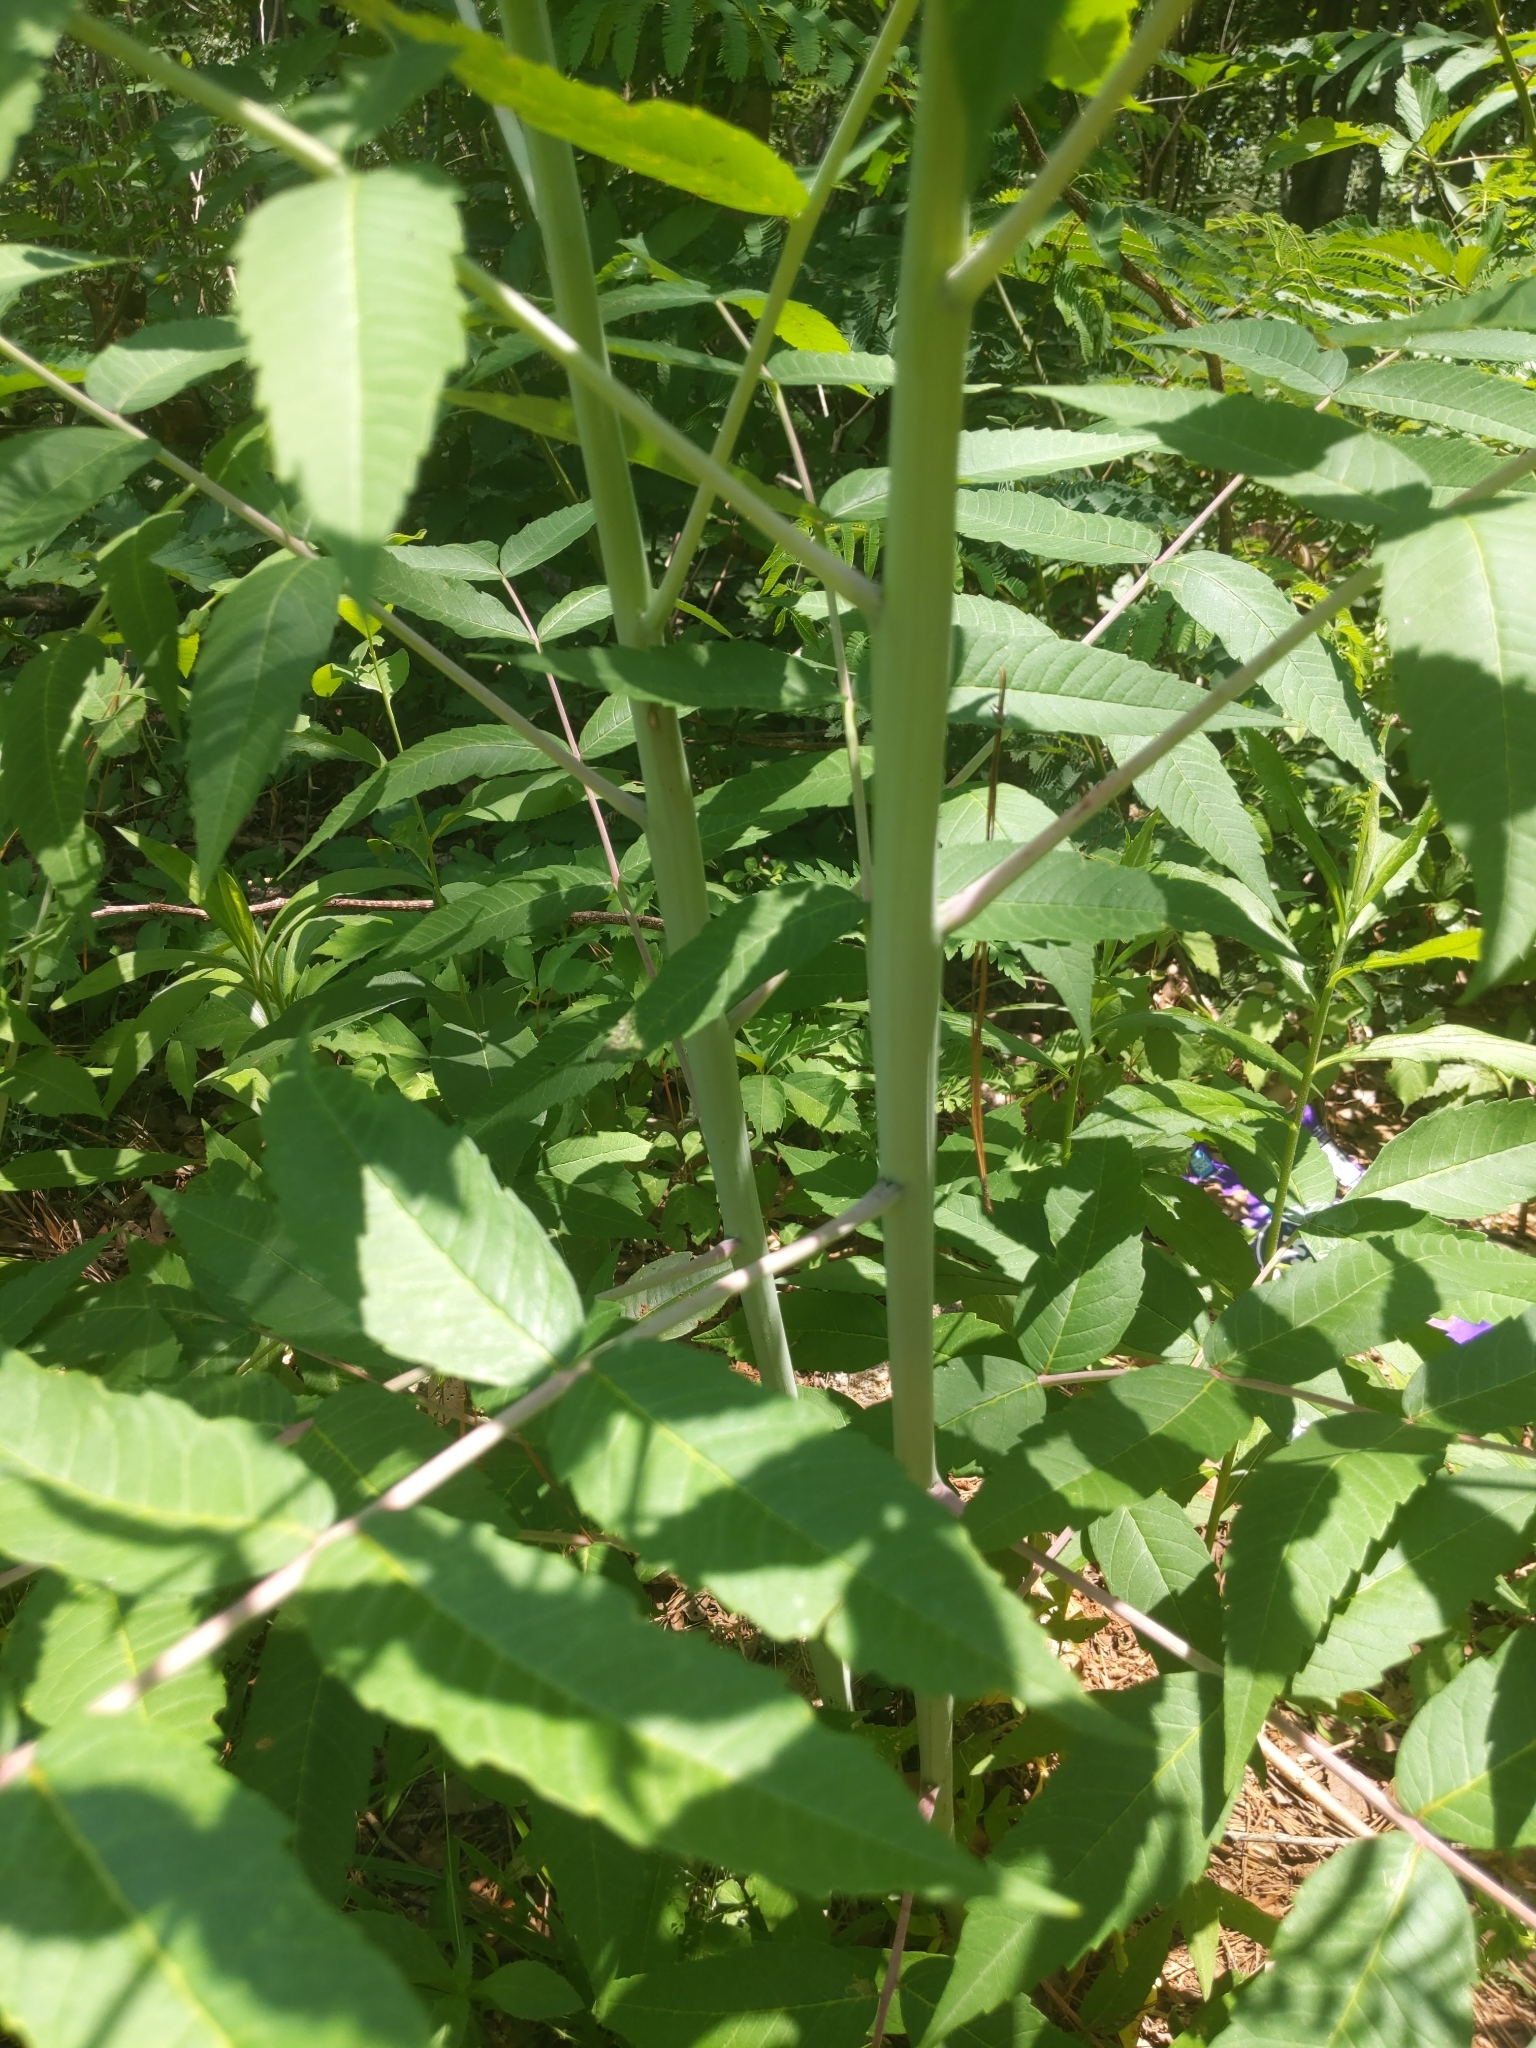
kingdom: Plantae
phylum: Tracheophyta
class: Magnoliopsida
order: Sapindales
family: Anacardiaceae
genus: Rhus
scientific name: Rhus glabra
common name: Scarlet sumac
